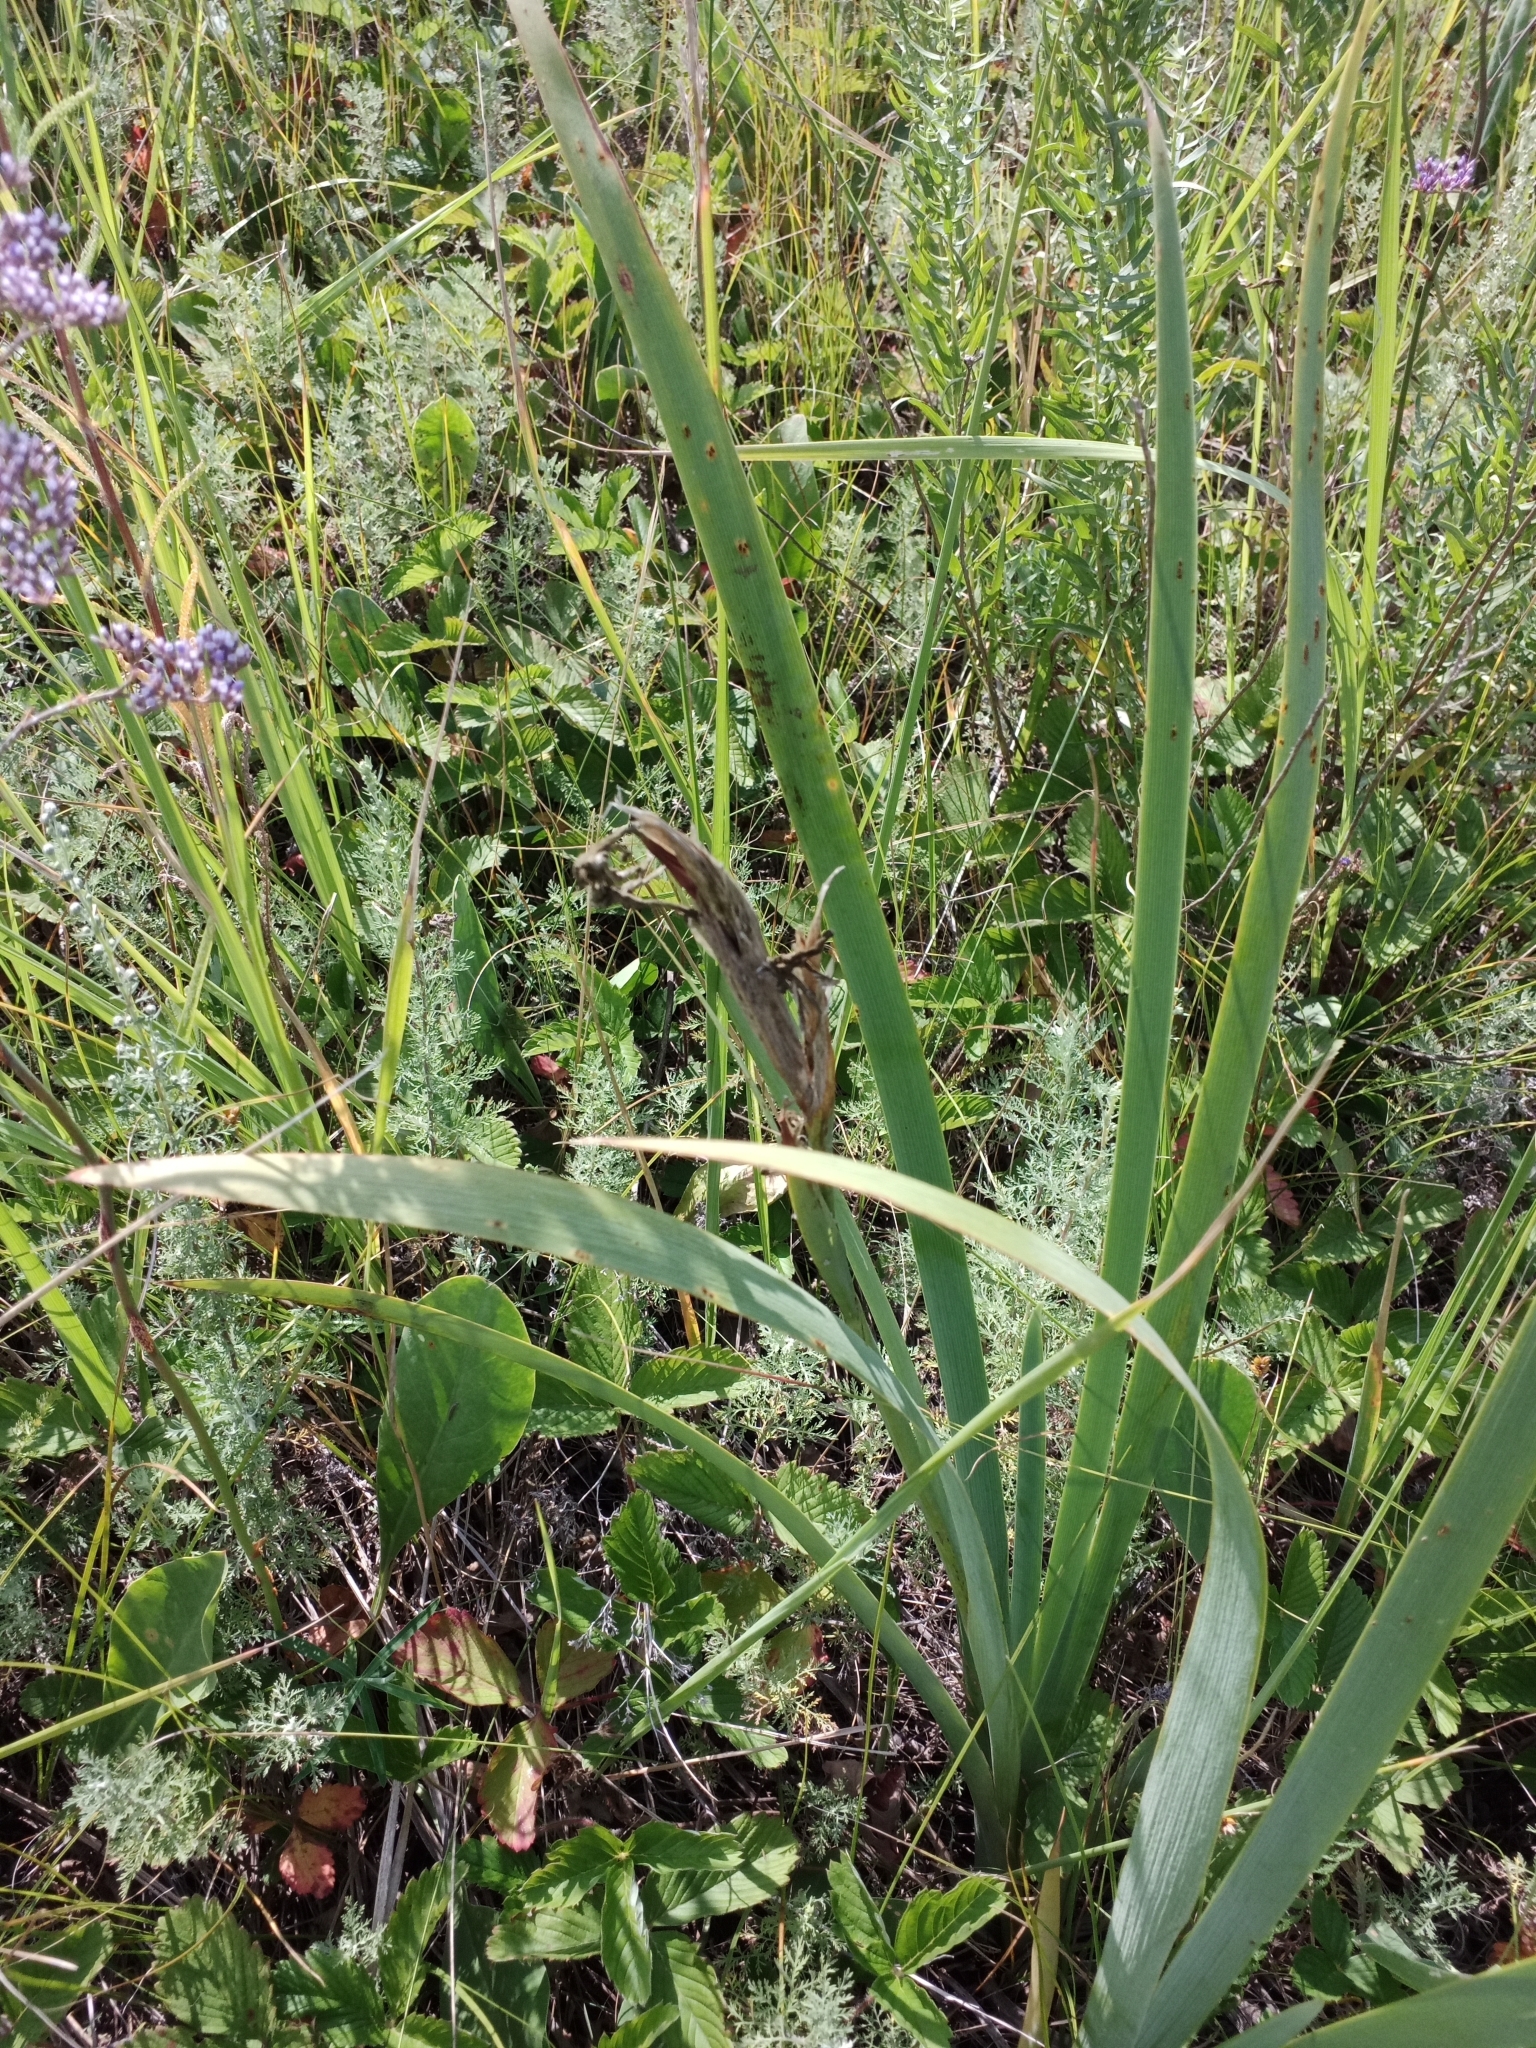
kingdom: Plantae
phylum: Tracheophyta
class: Liliopsida
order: Asparagales
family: Iridaceae
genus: Iris
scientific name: Iris halophila
